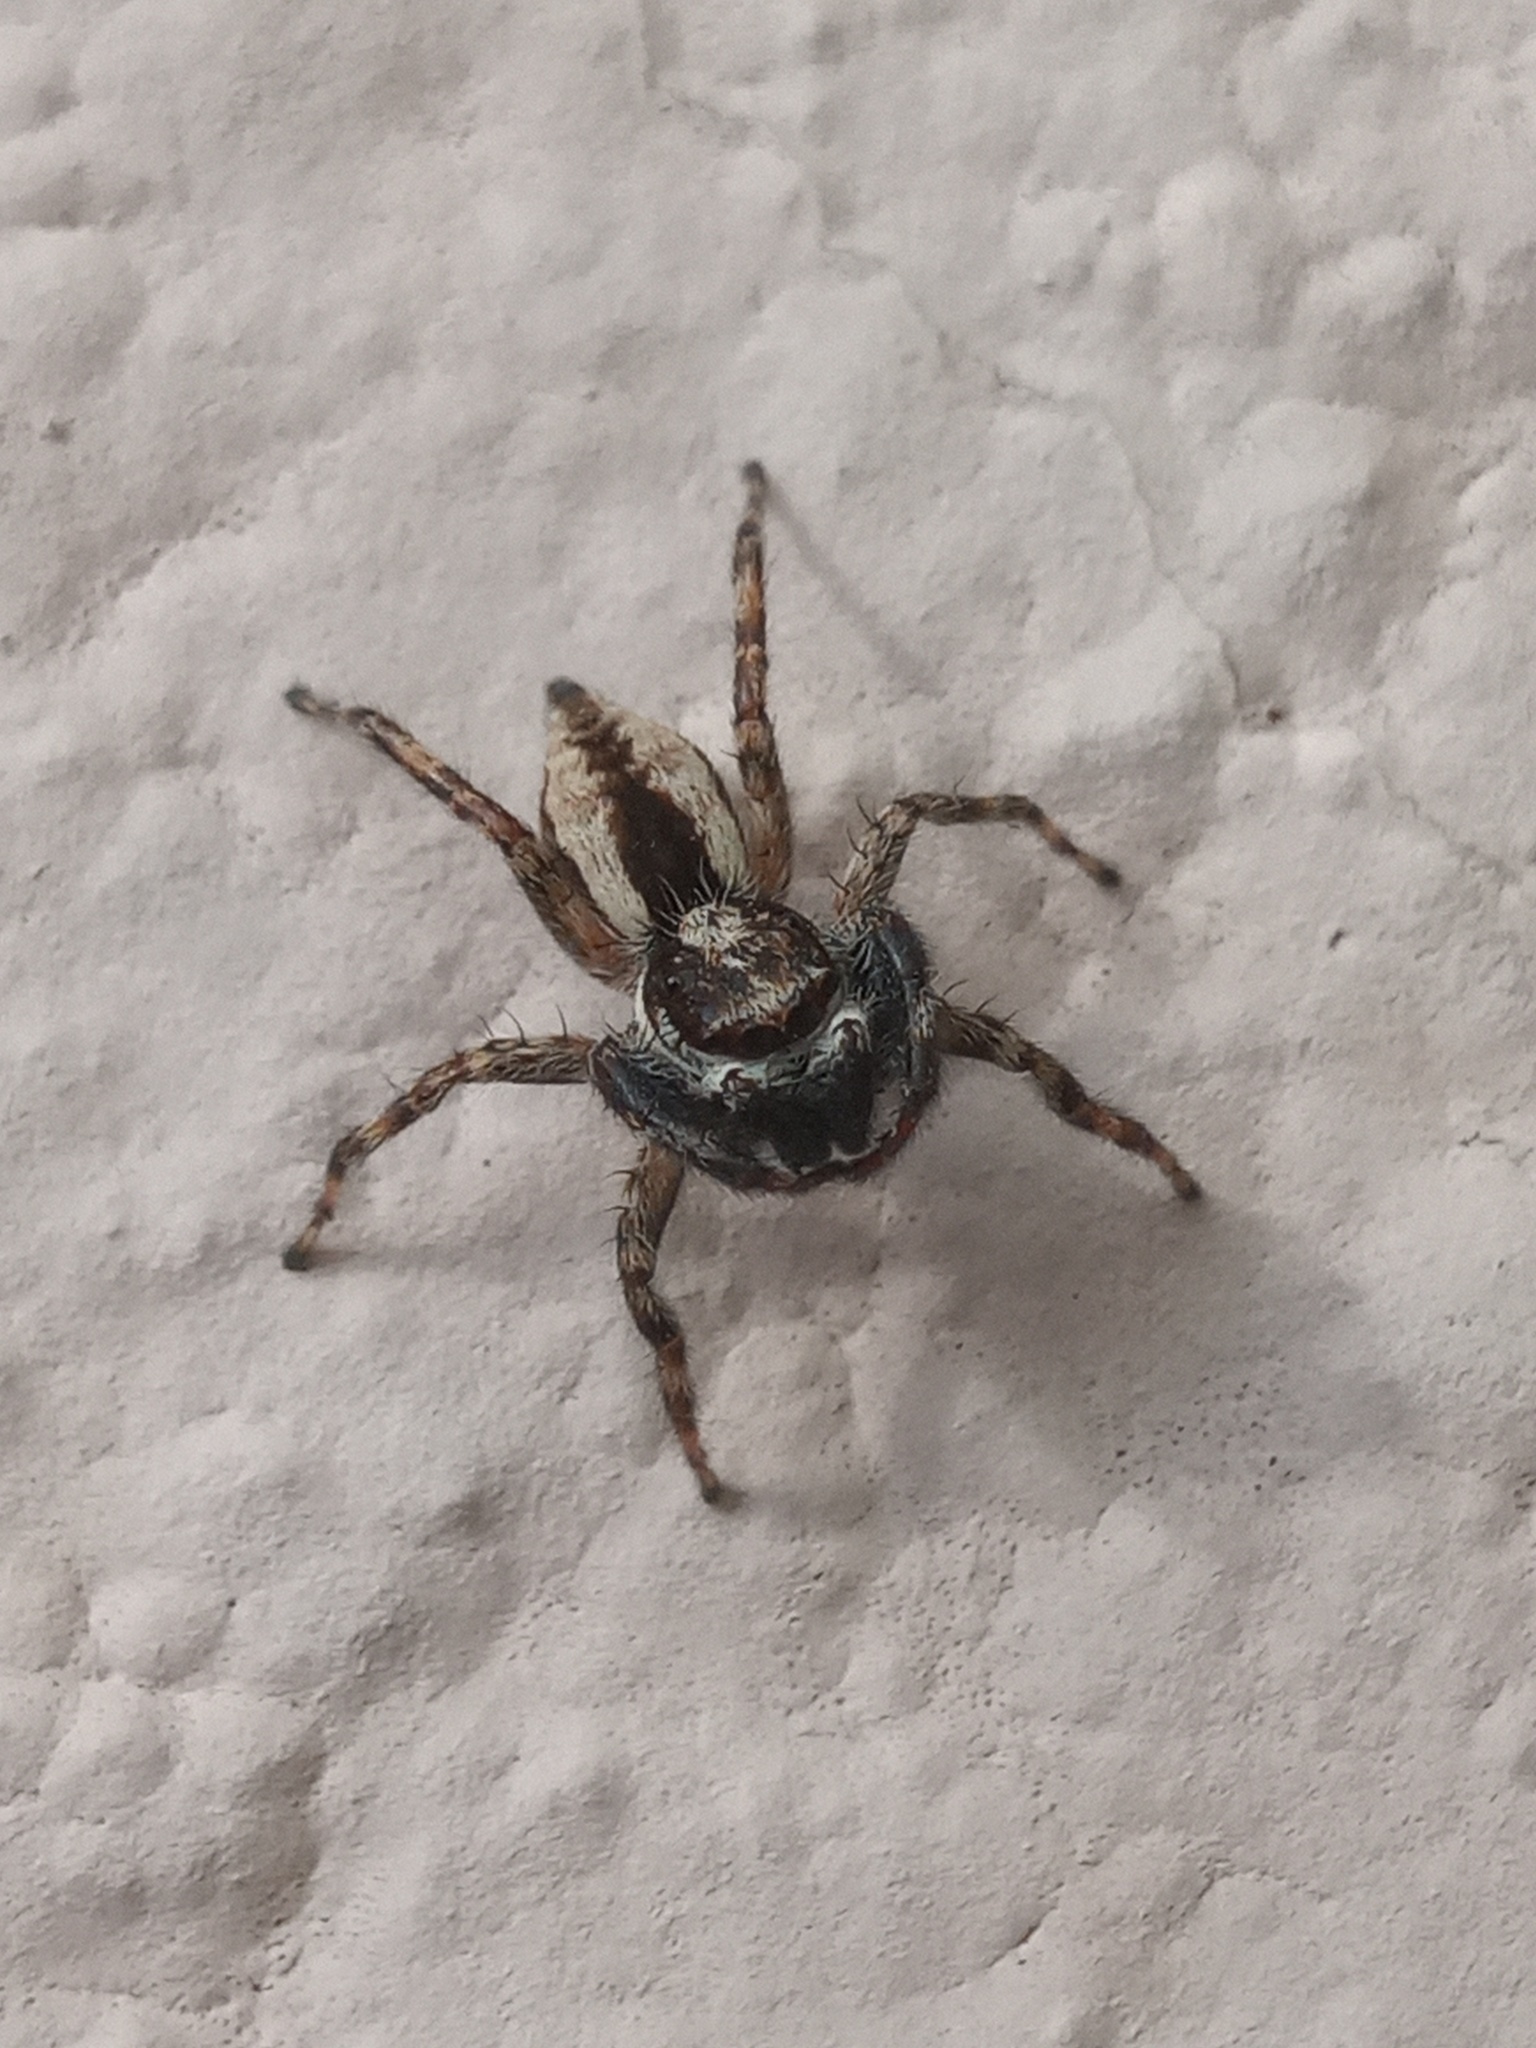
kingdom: Animalia
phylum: Arthropoda
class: Arachnida
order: Araneae
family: Salticidae
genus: Menemerus
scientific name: Menemerus bivittatus
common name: Gray wall jumper
